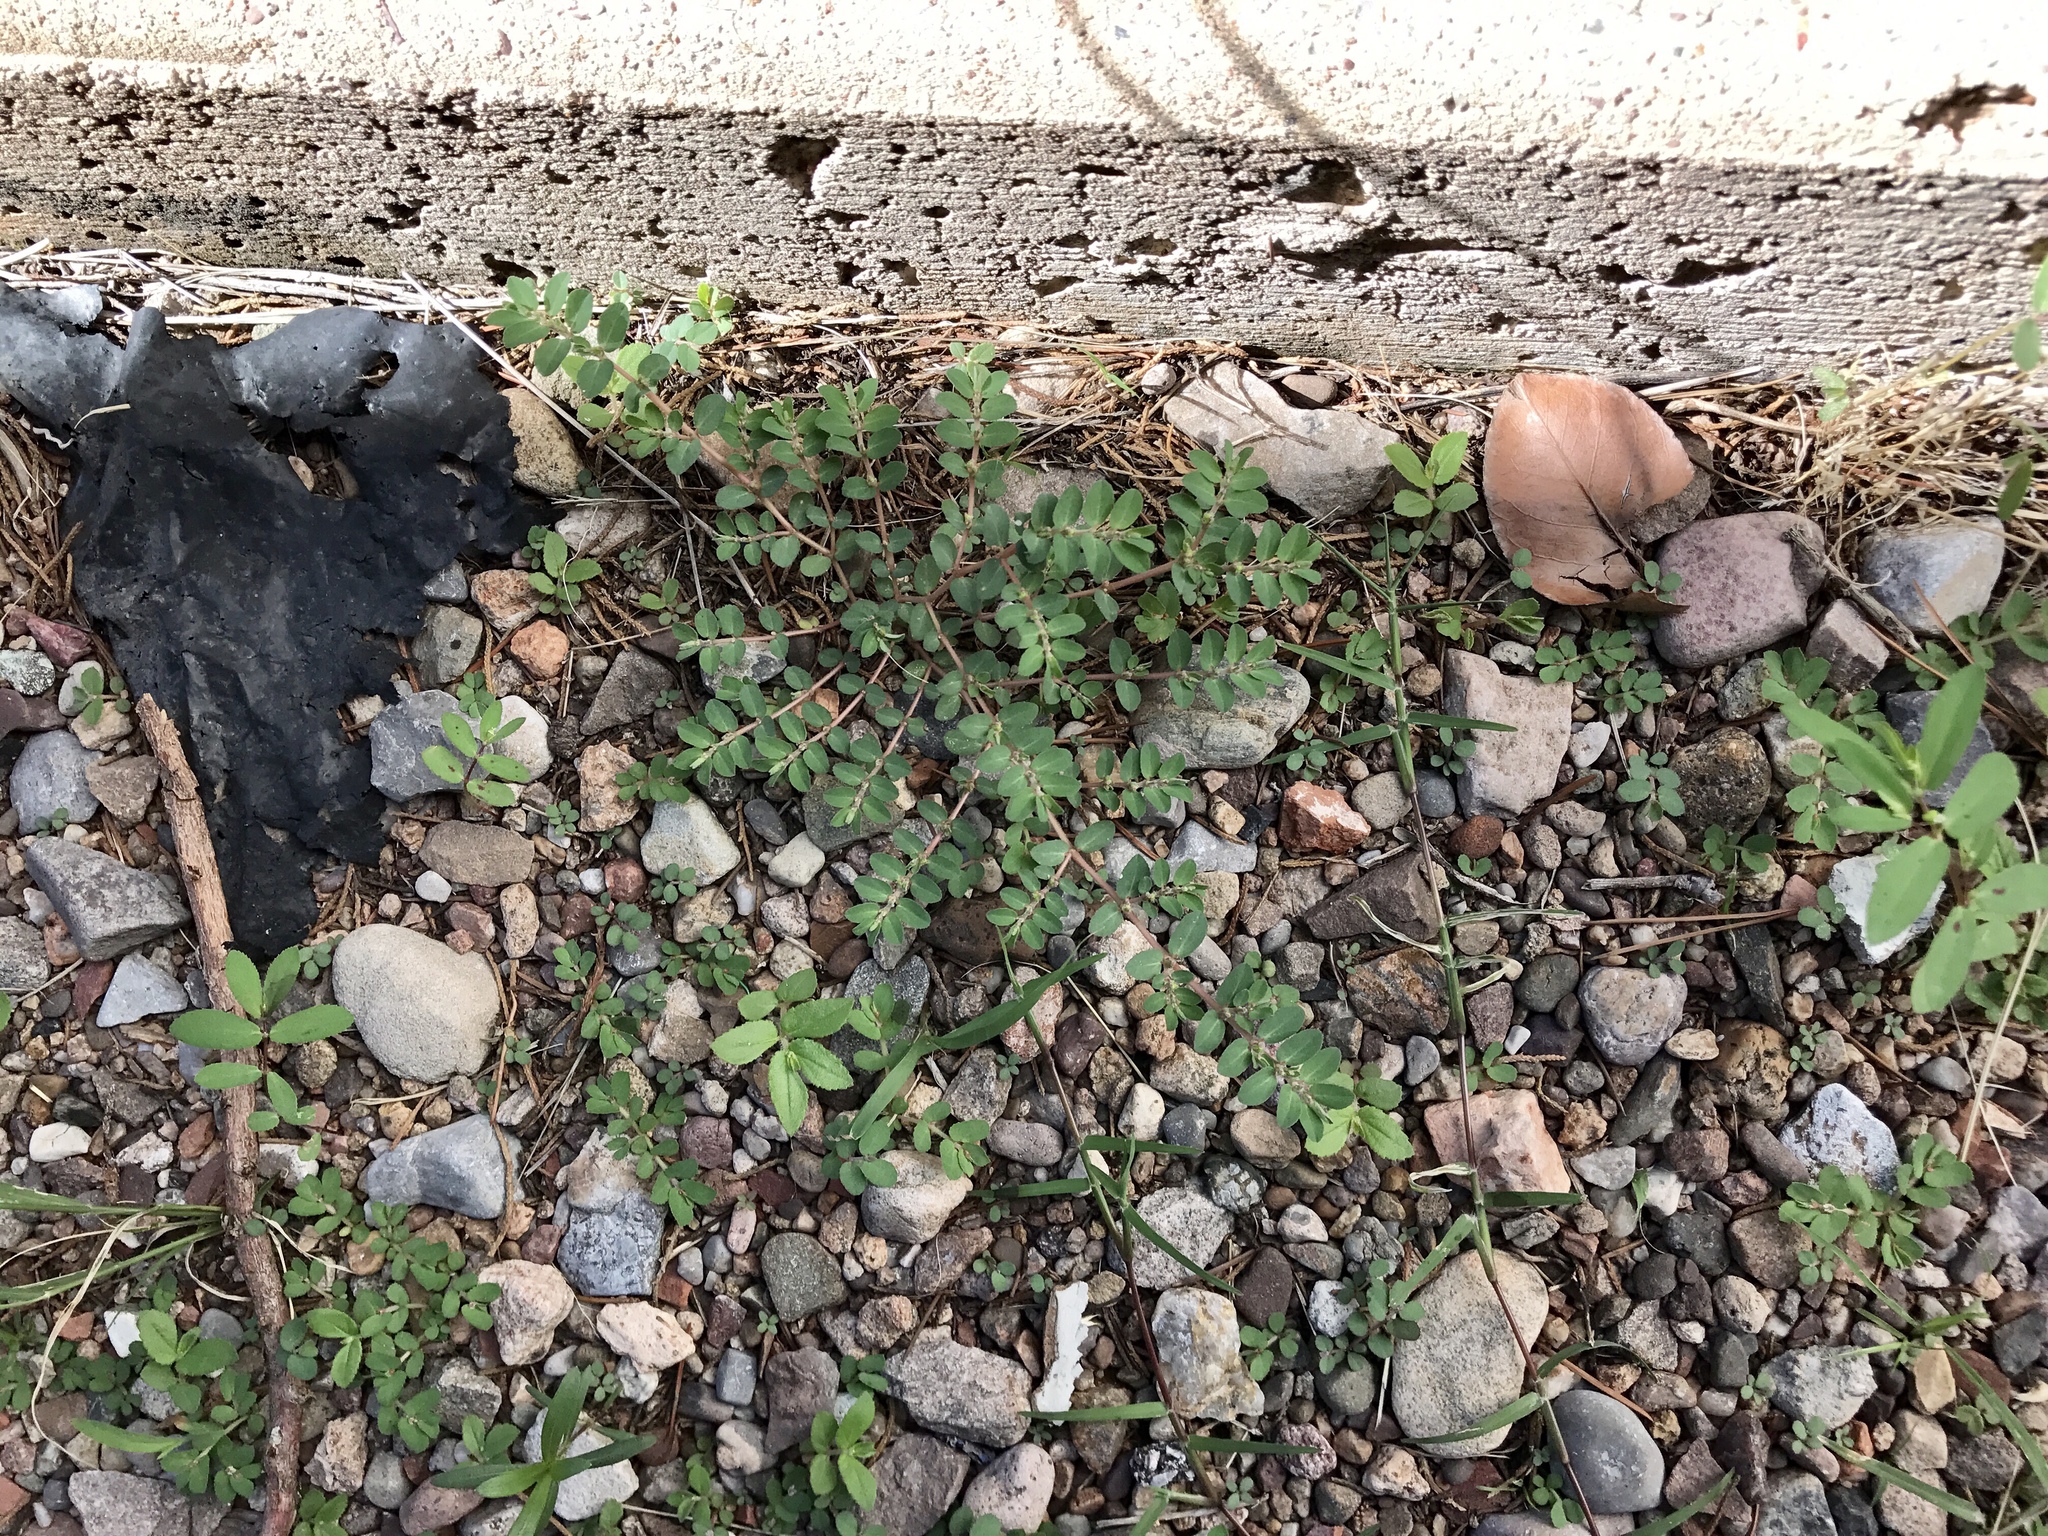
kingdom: Plantae
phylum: Tracheophyta
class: Magnoliopsida
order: Malpighiales
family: Euphorbiaceae
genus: Euphorbia
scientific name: Euphorbia prostrata
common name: Prostrate sandmat
